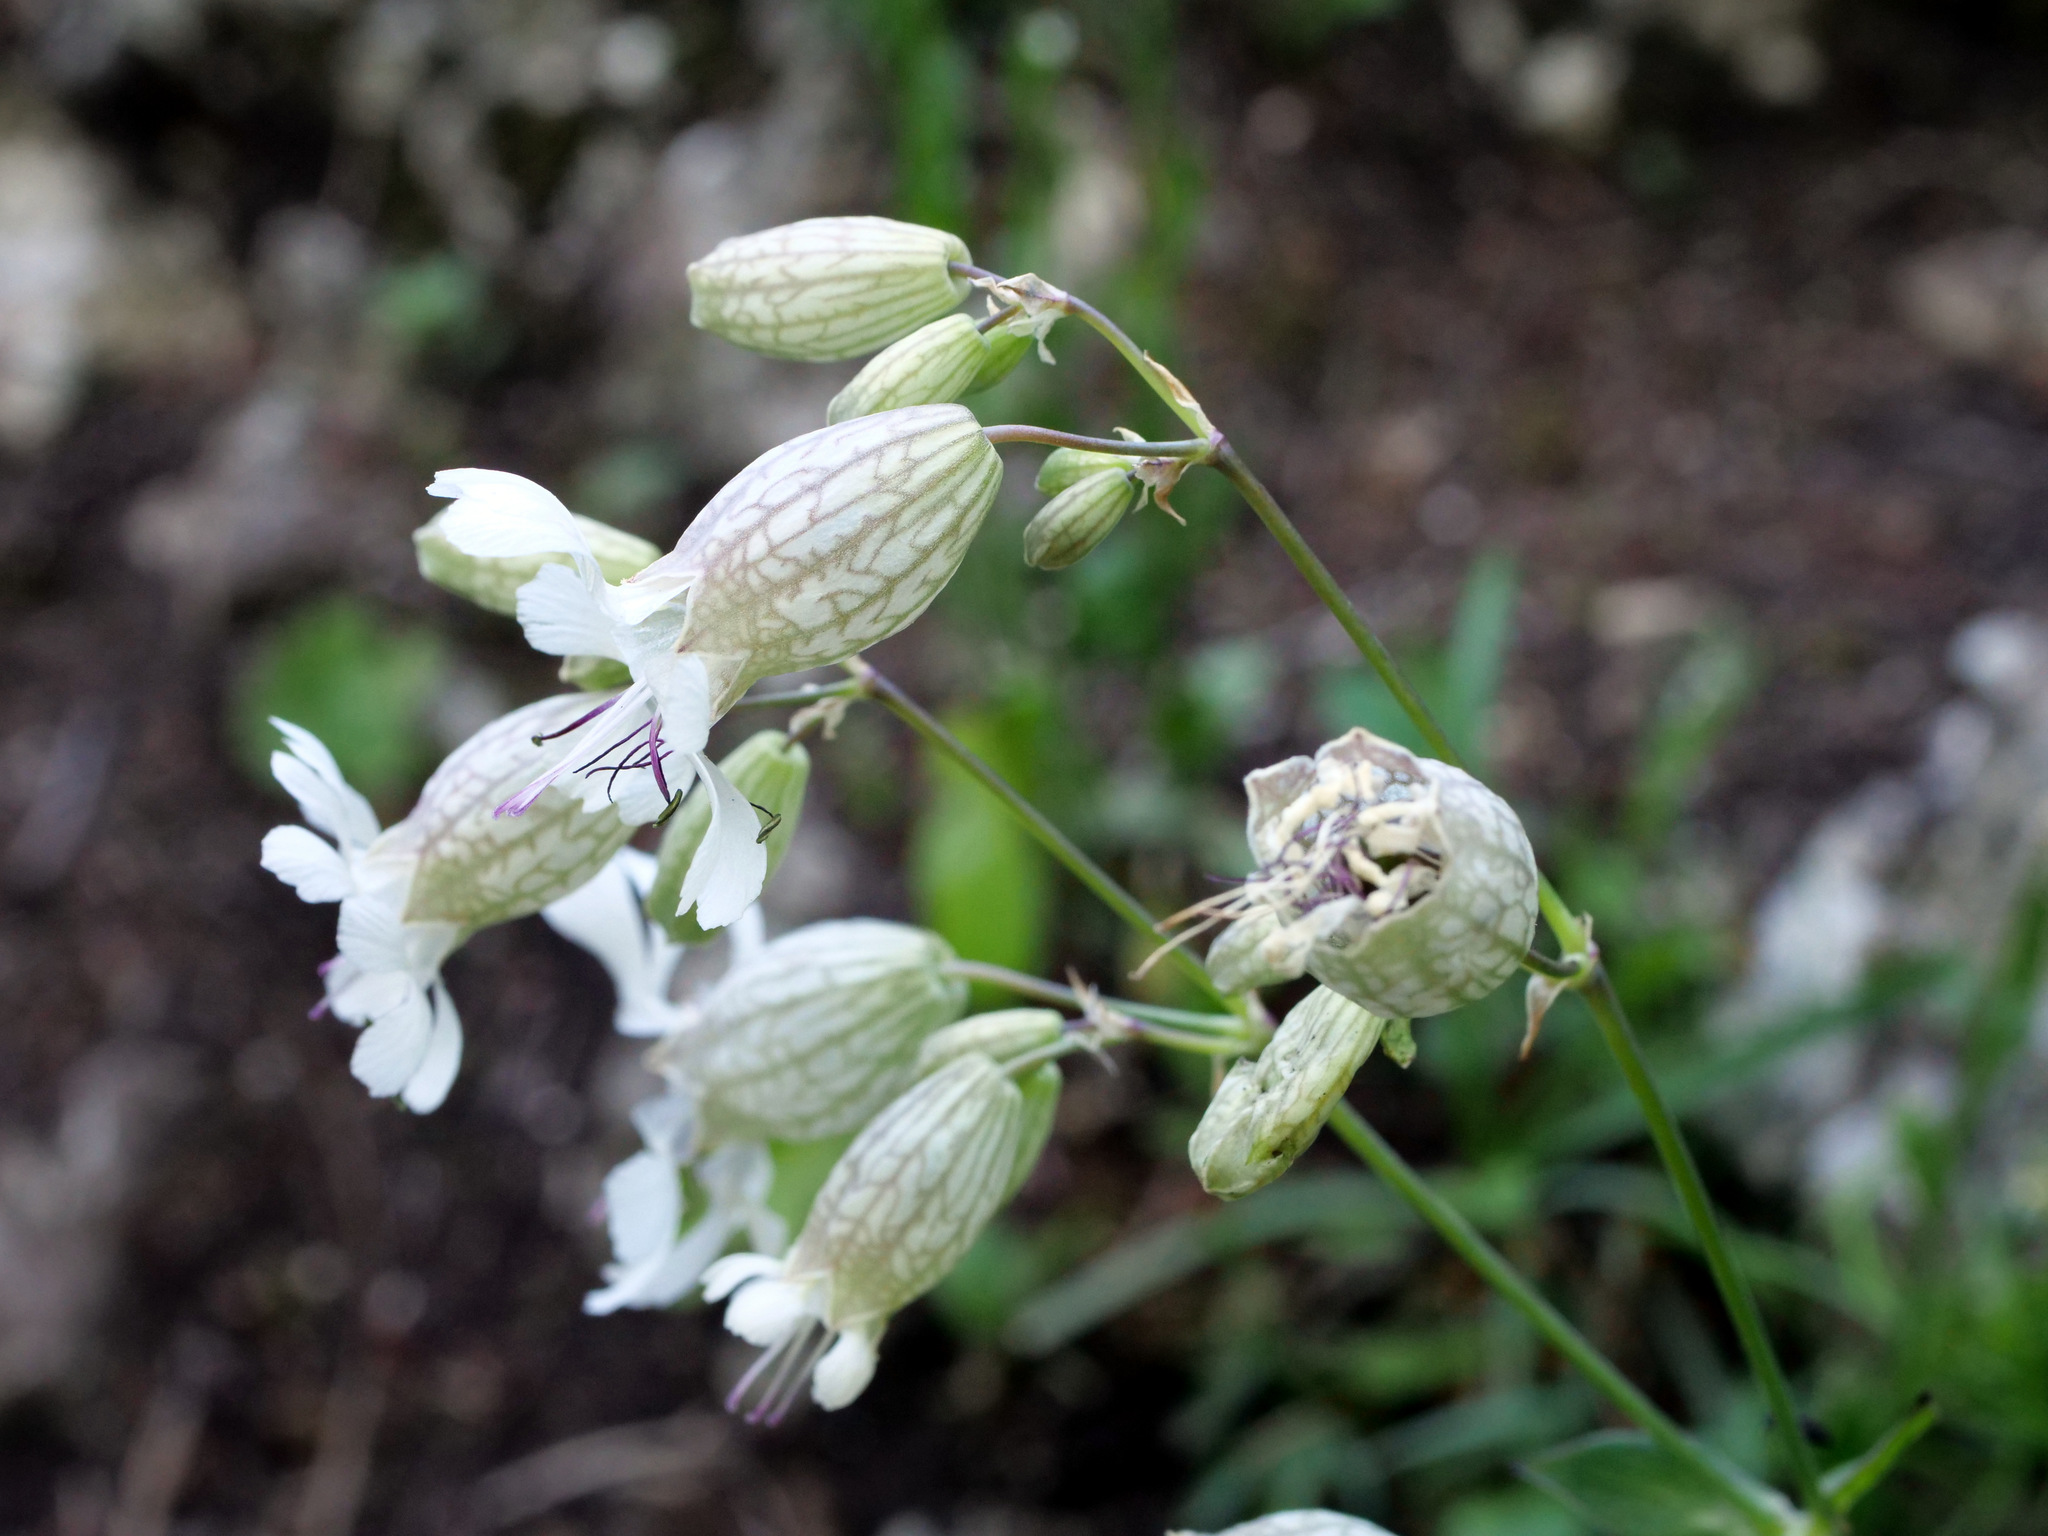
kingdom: Plantae
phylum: Tracheophyta
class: Magnoliopsida
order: Caryophyllales
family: Caryophyllaceae
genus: Silene
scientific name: Silene vulgaris
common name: Bladder campion
